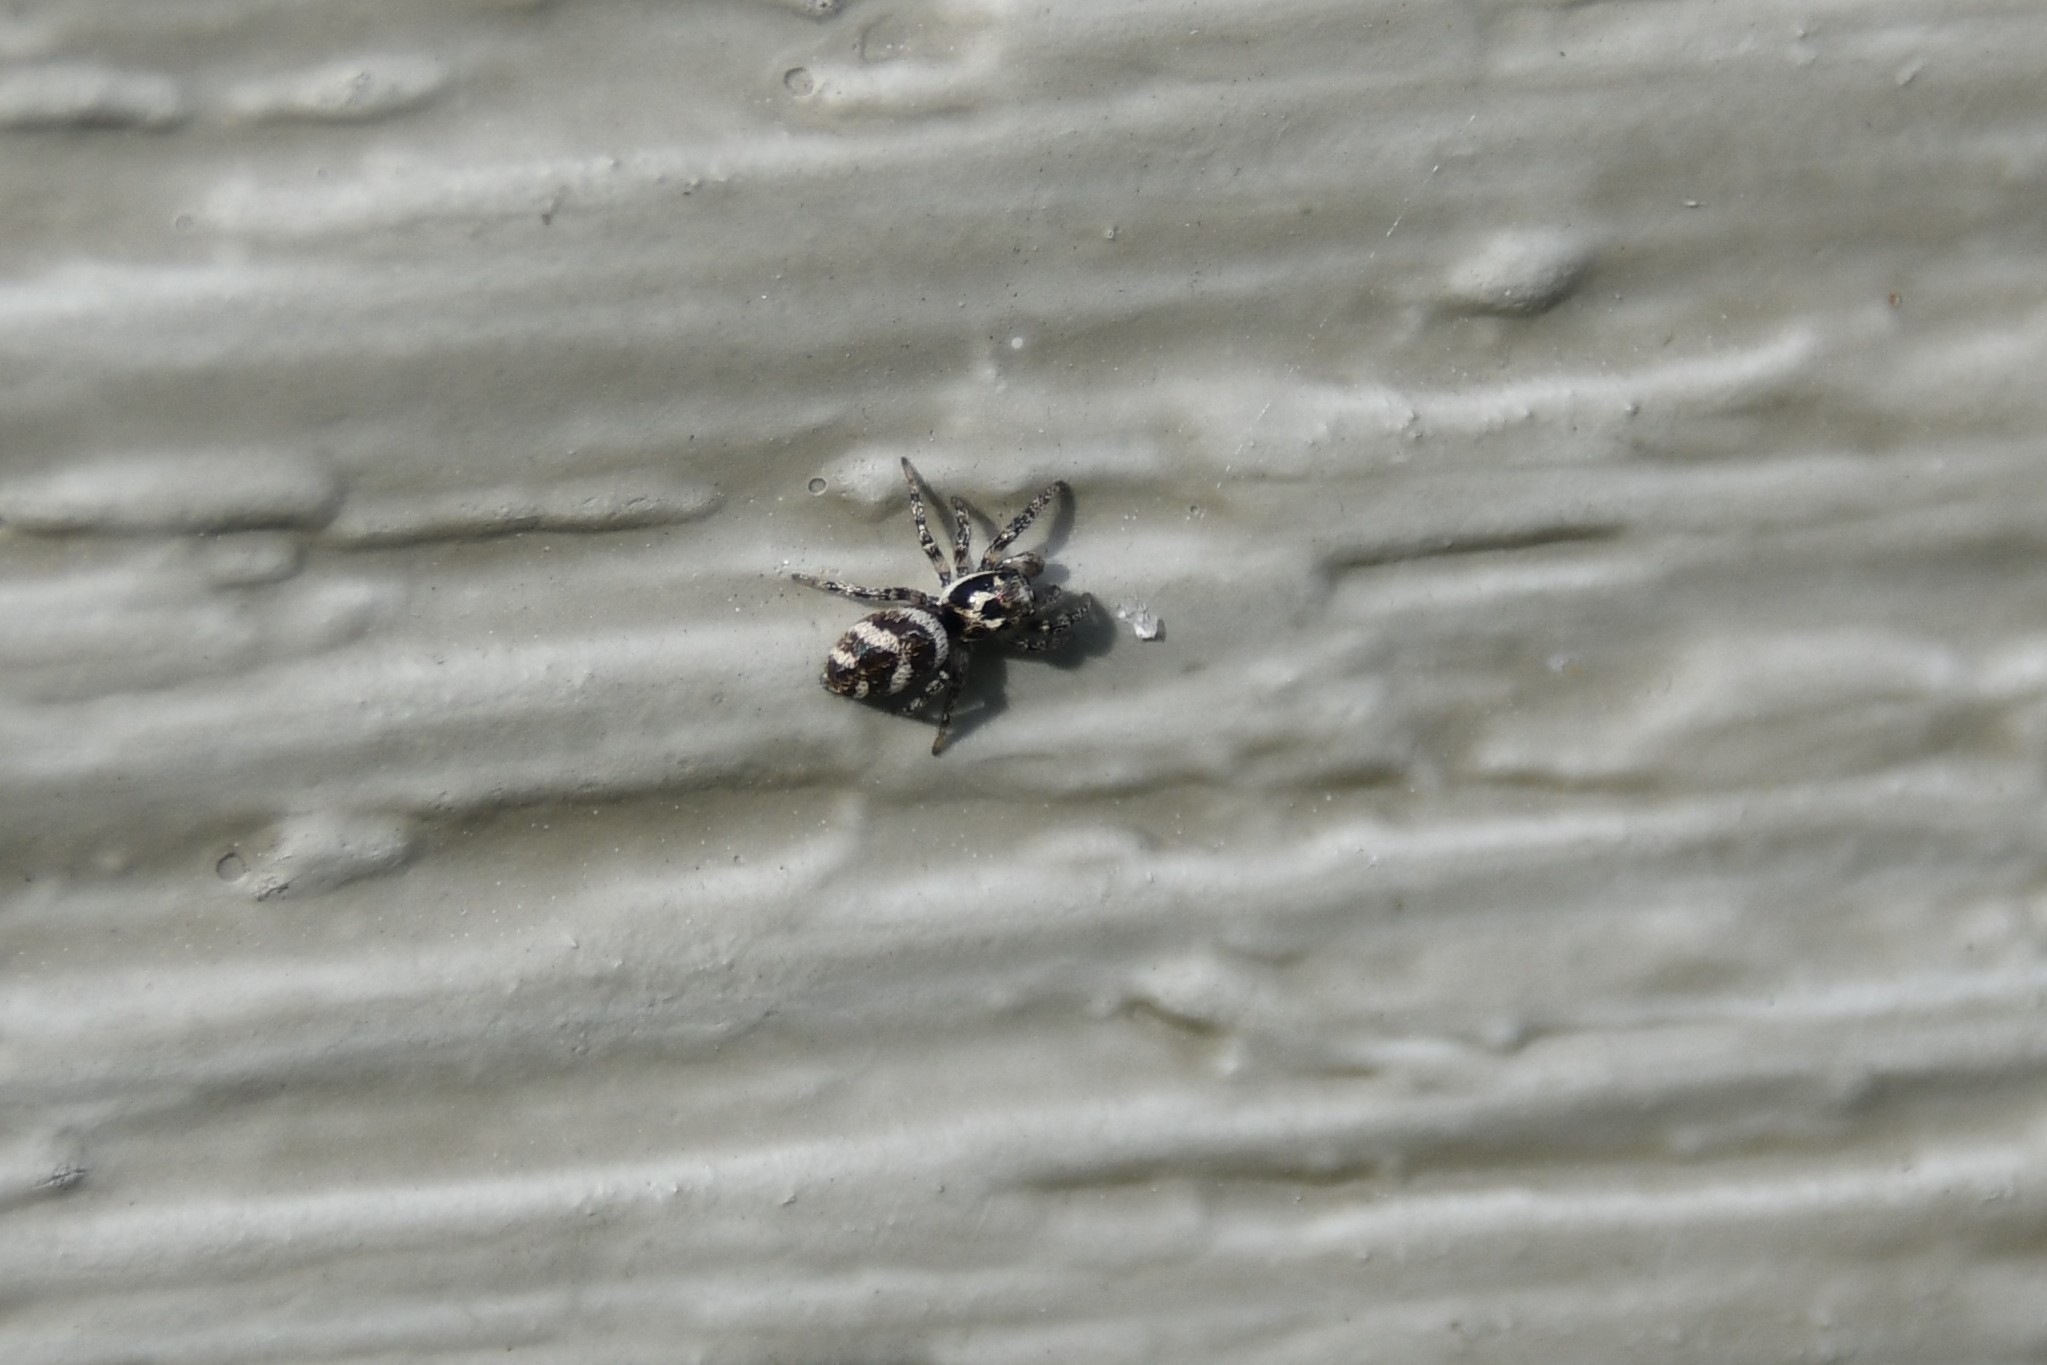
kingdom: Animalia
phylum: Arthropoda
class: Arachnida
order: Araneae
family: Salticidae
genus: Salticus
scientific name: Salticus scenicus
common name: Zebra jumper
